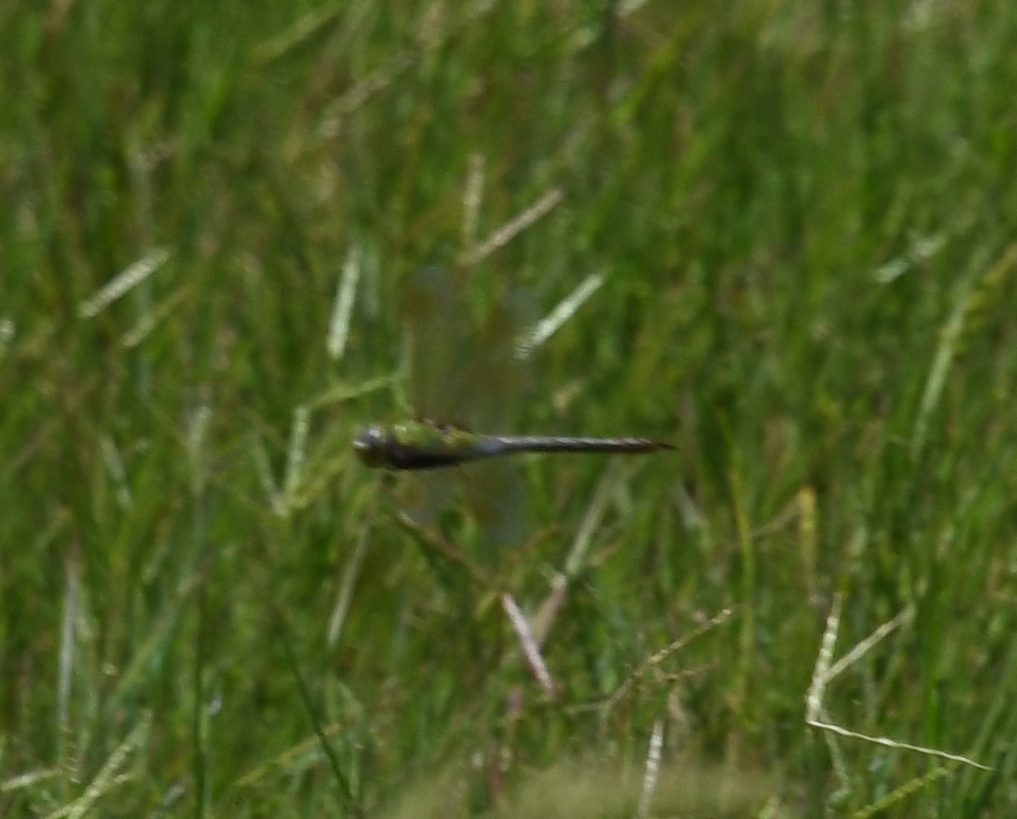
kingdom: Animalia
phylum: Arthropoda
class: Insecta
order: Odonata
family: Aeshnidae
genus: Anax
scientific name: Anax junius
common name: Common green darner
